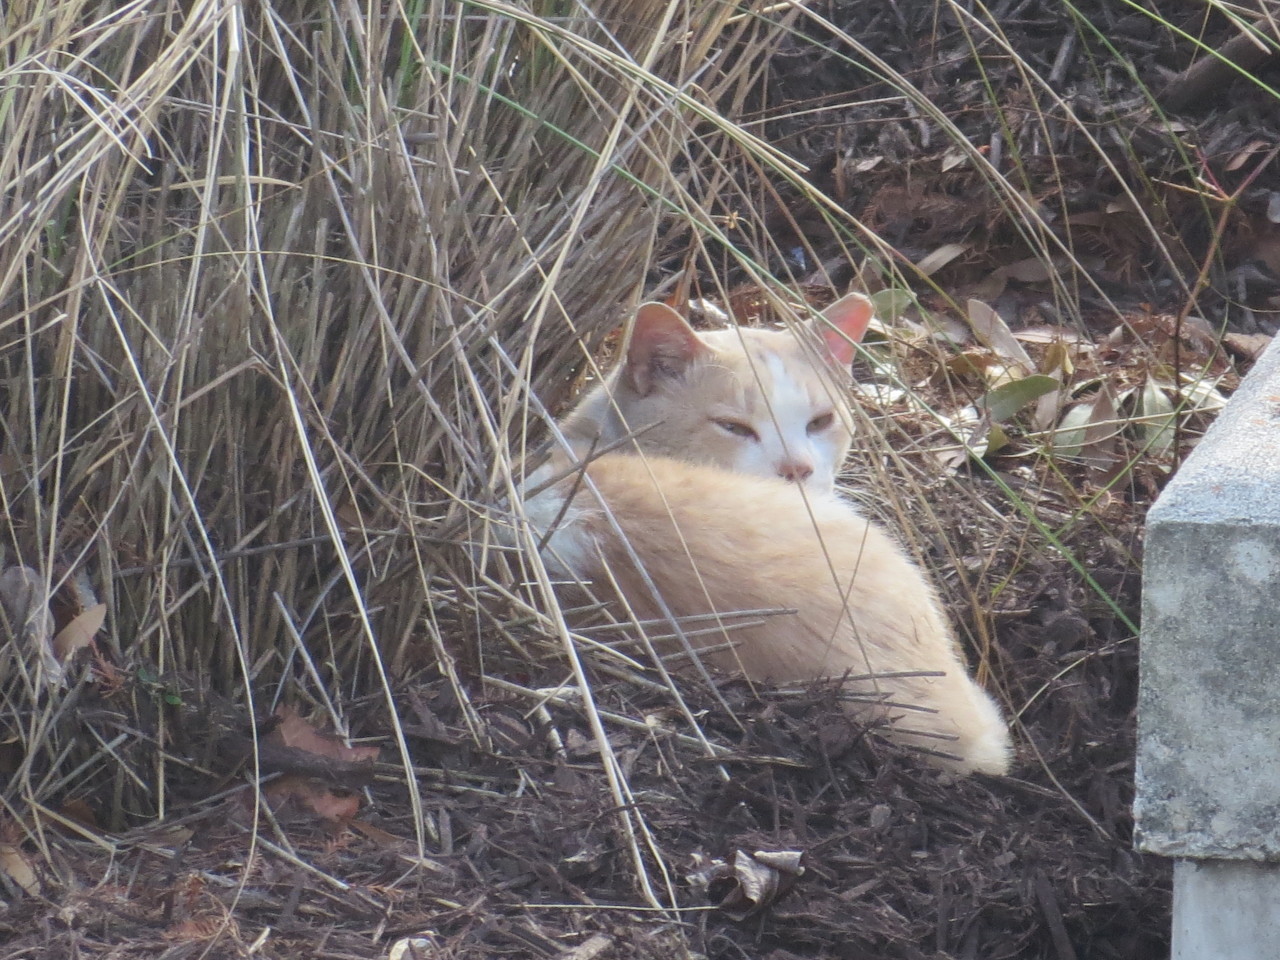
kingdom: Animalia
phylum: Chordata
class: Mammalia
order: Carnivora
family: Felidae
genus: Felis
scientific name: Felis catus
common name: Domestic cat
